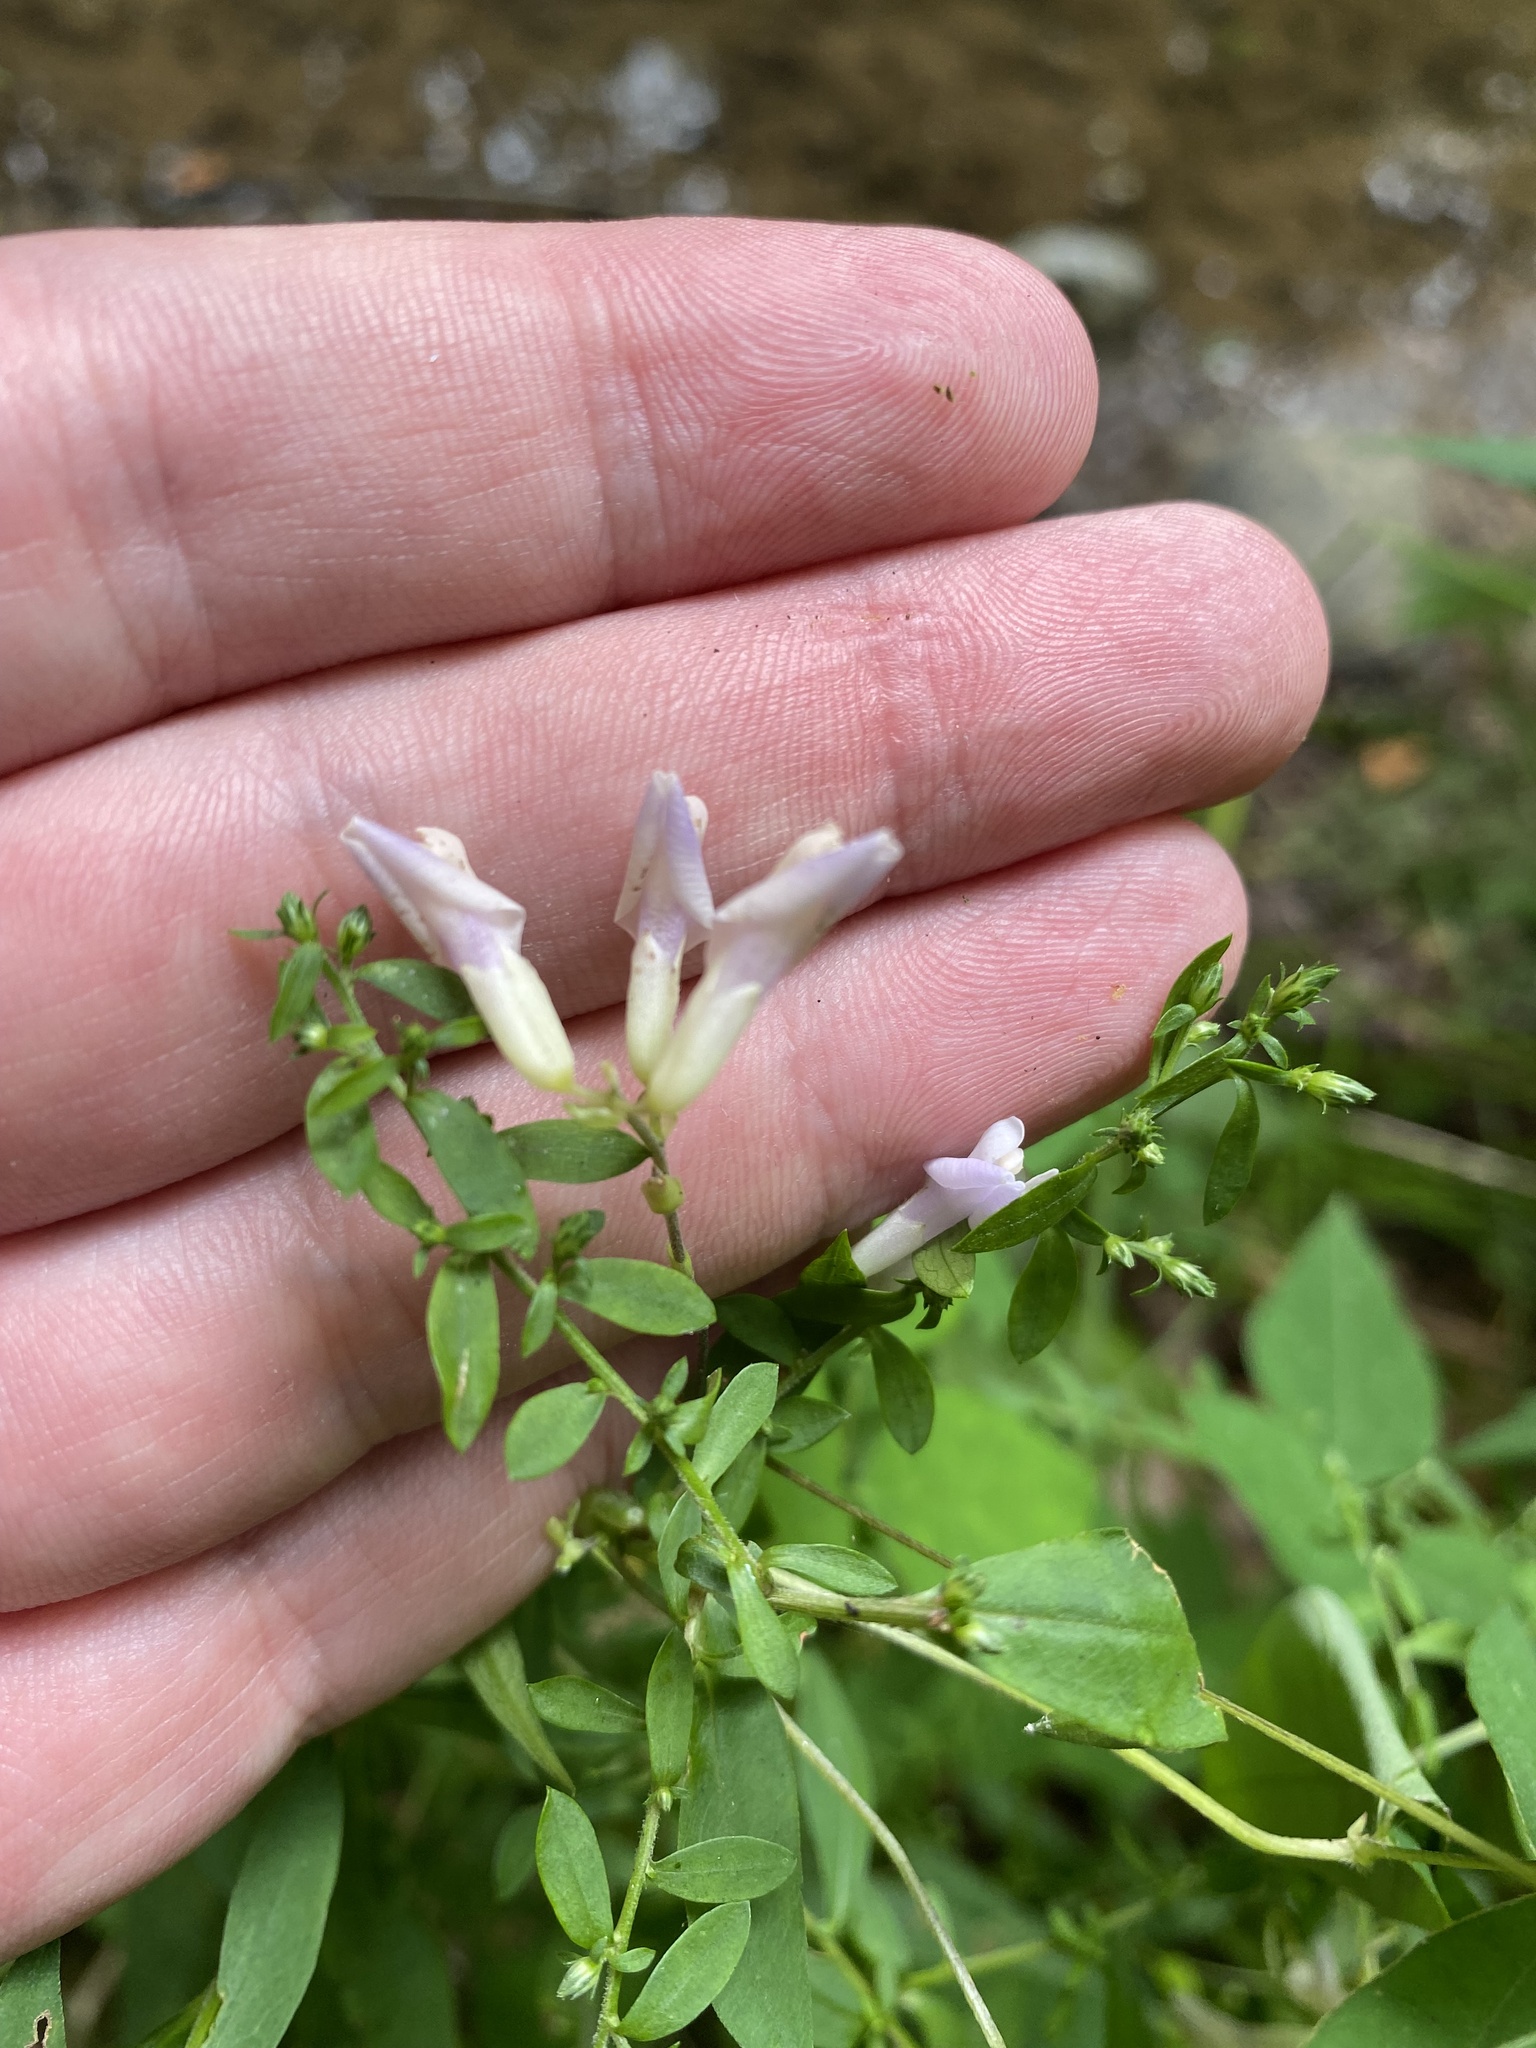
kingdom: Plantae
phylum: Tracheophyta
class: Magnoliopsida
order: Fabales
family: Fabaceae
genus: Amphicarpaea
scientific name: Amphicarpaea bracteata
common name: American hog peanut
